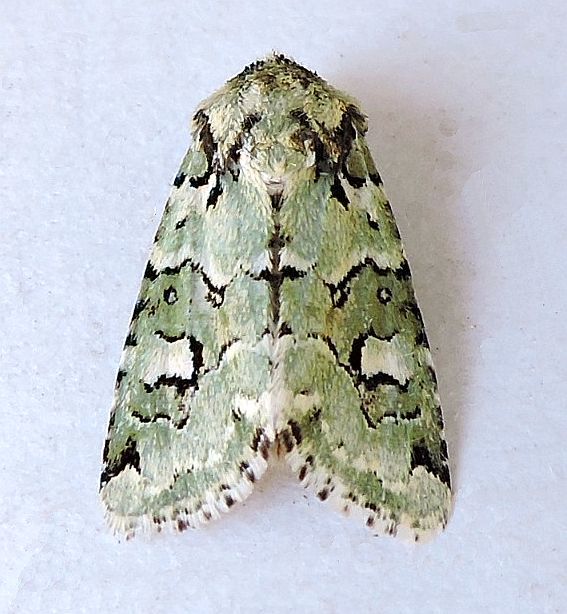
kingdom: Animalia
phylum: Arthropoda
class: Insecta
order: Lepidoptera
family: Noctuidae
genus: Lacinipolia
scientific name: Lacinipolia viridifera
